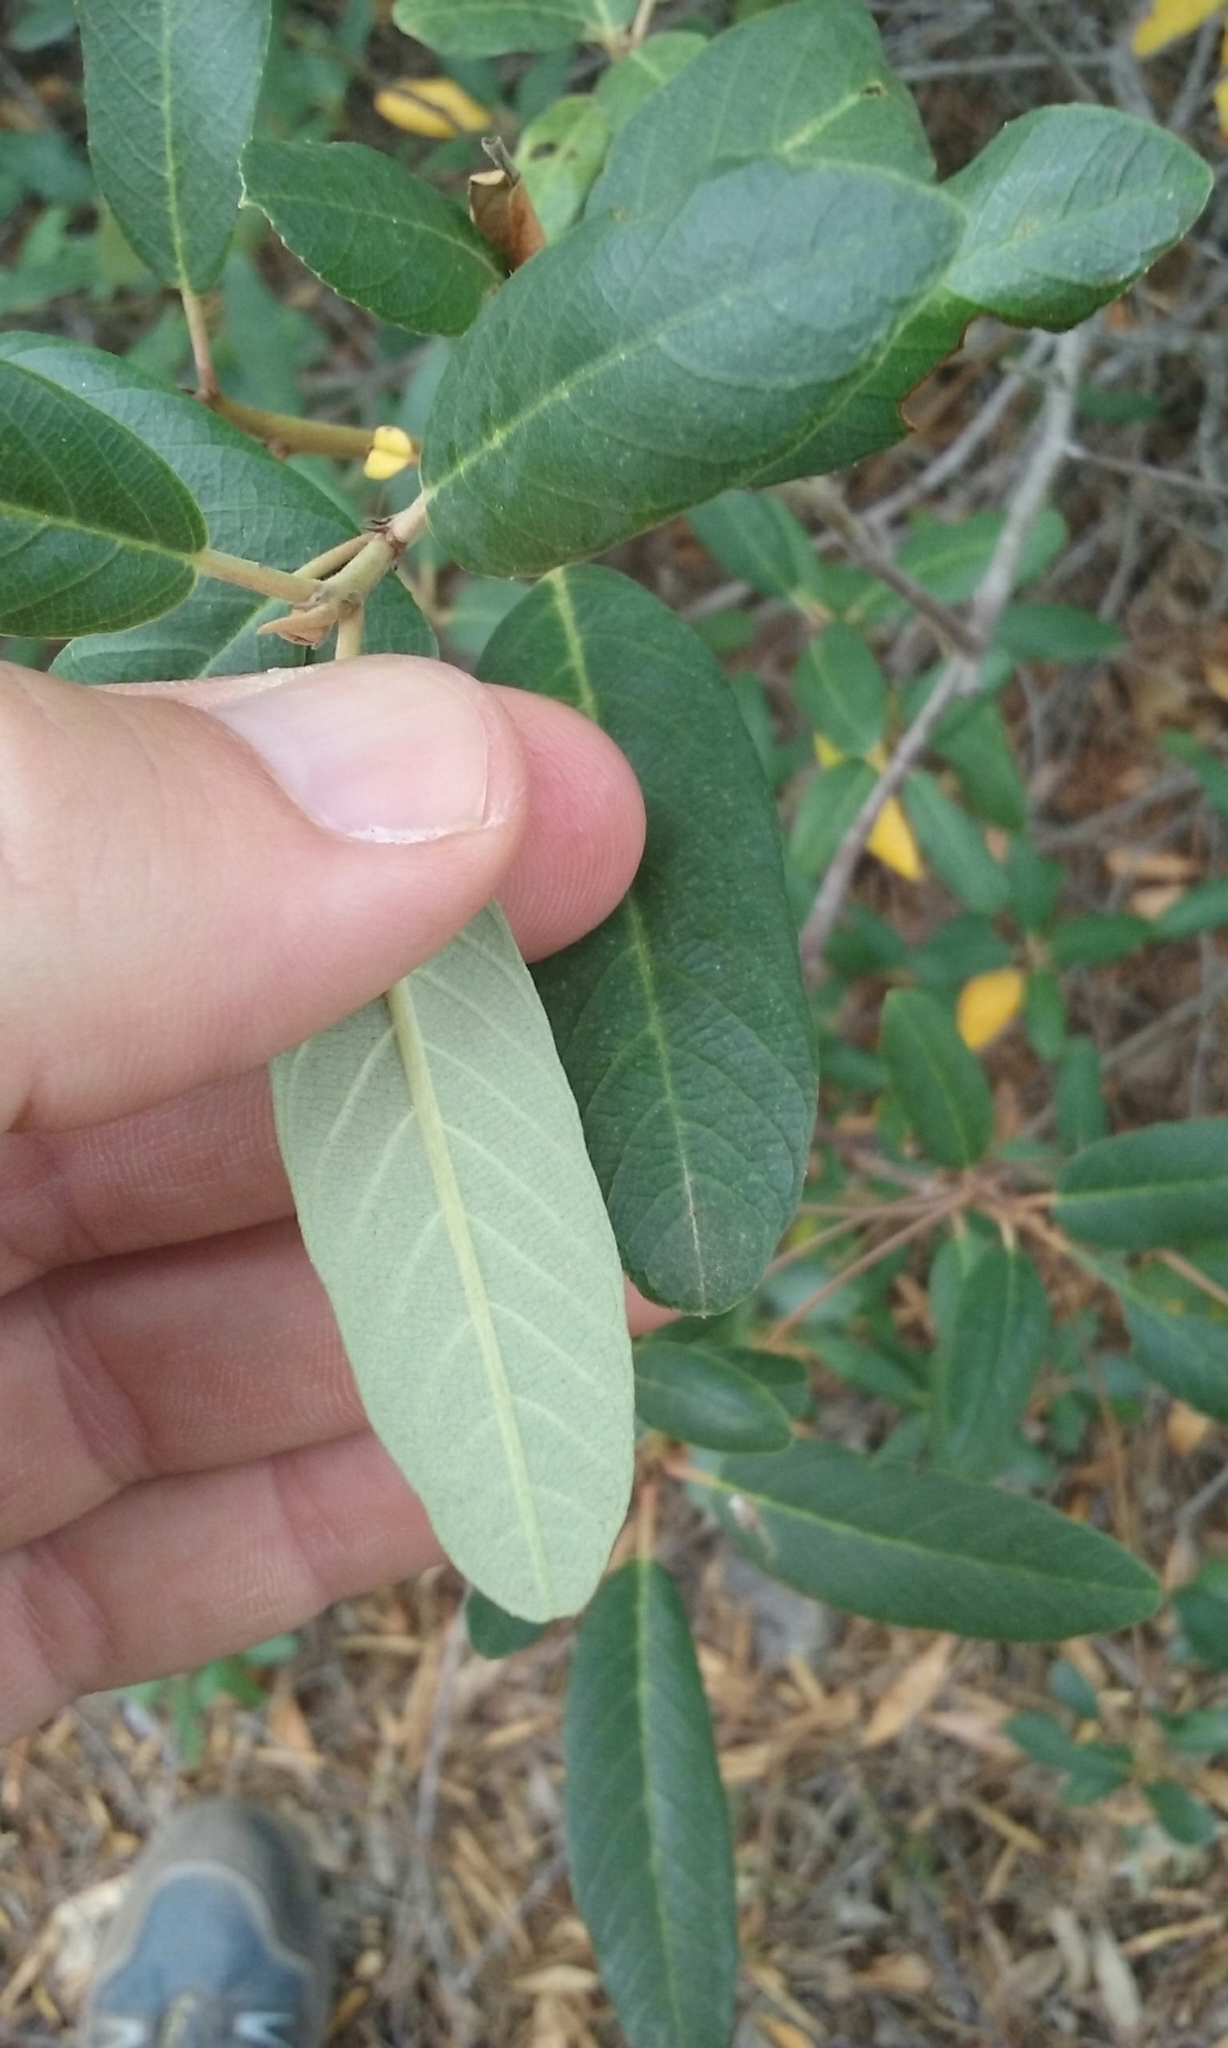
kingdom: Plantae
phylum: Tracheophyta
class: Magnoliopsida
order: Rosales
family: Rhamnaceae
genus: Frangula
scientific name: Frangula californica
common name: California buckthorn
